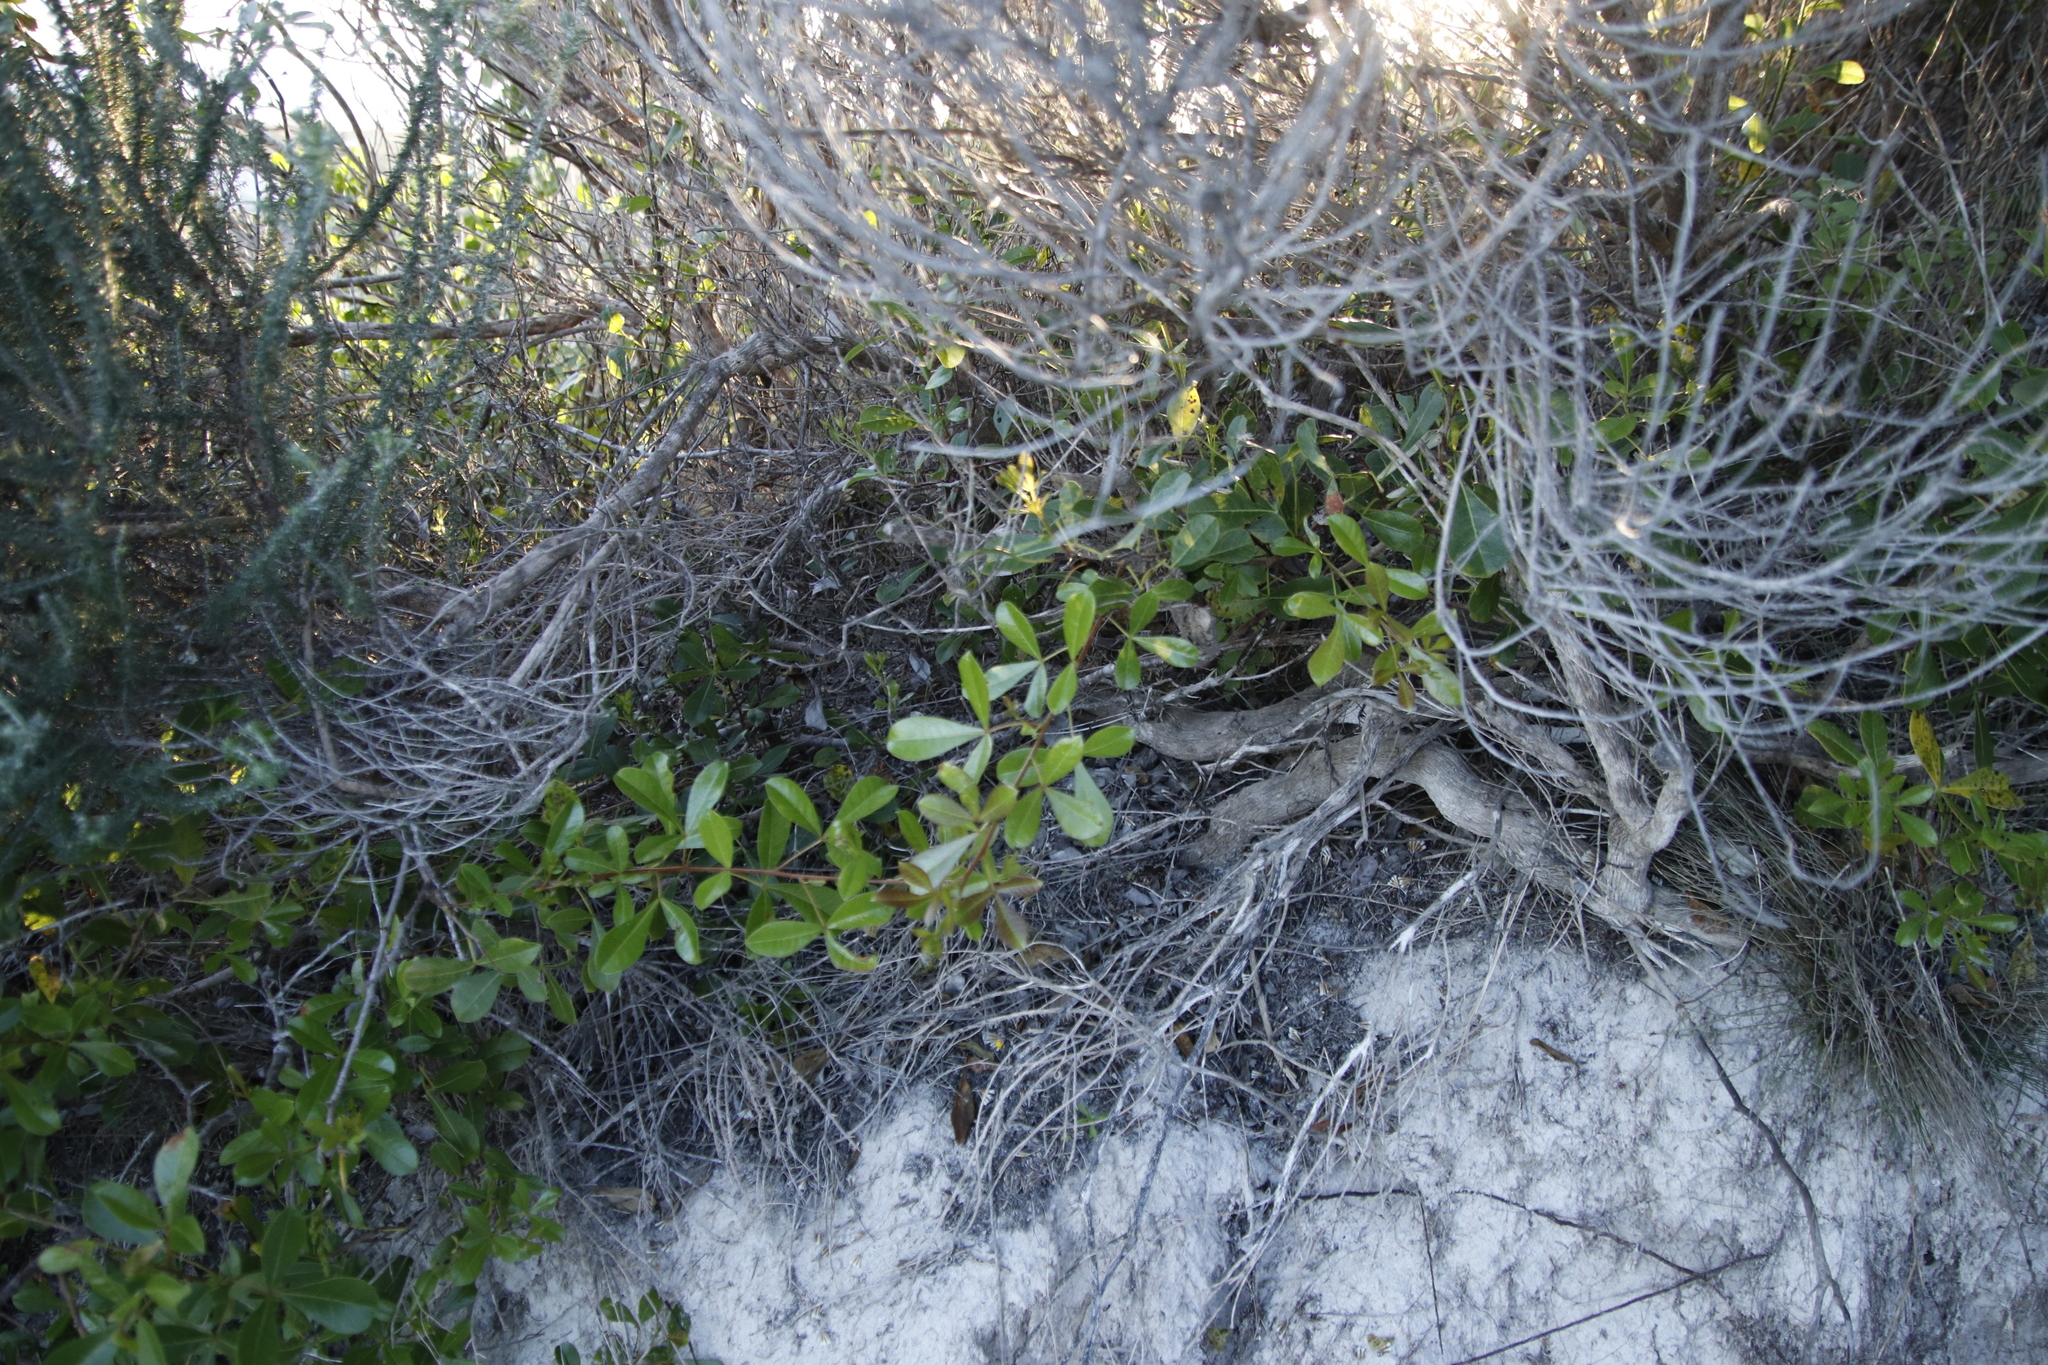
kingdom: Plantae
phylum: Tracheophyta
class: Magnoliopsida
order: Sapindales
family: Anacardiaceae
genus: Searsia
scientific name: Searsia laevigata
